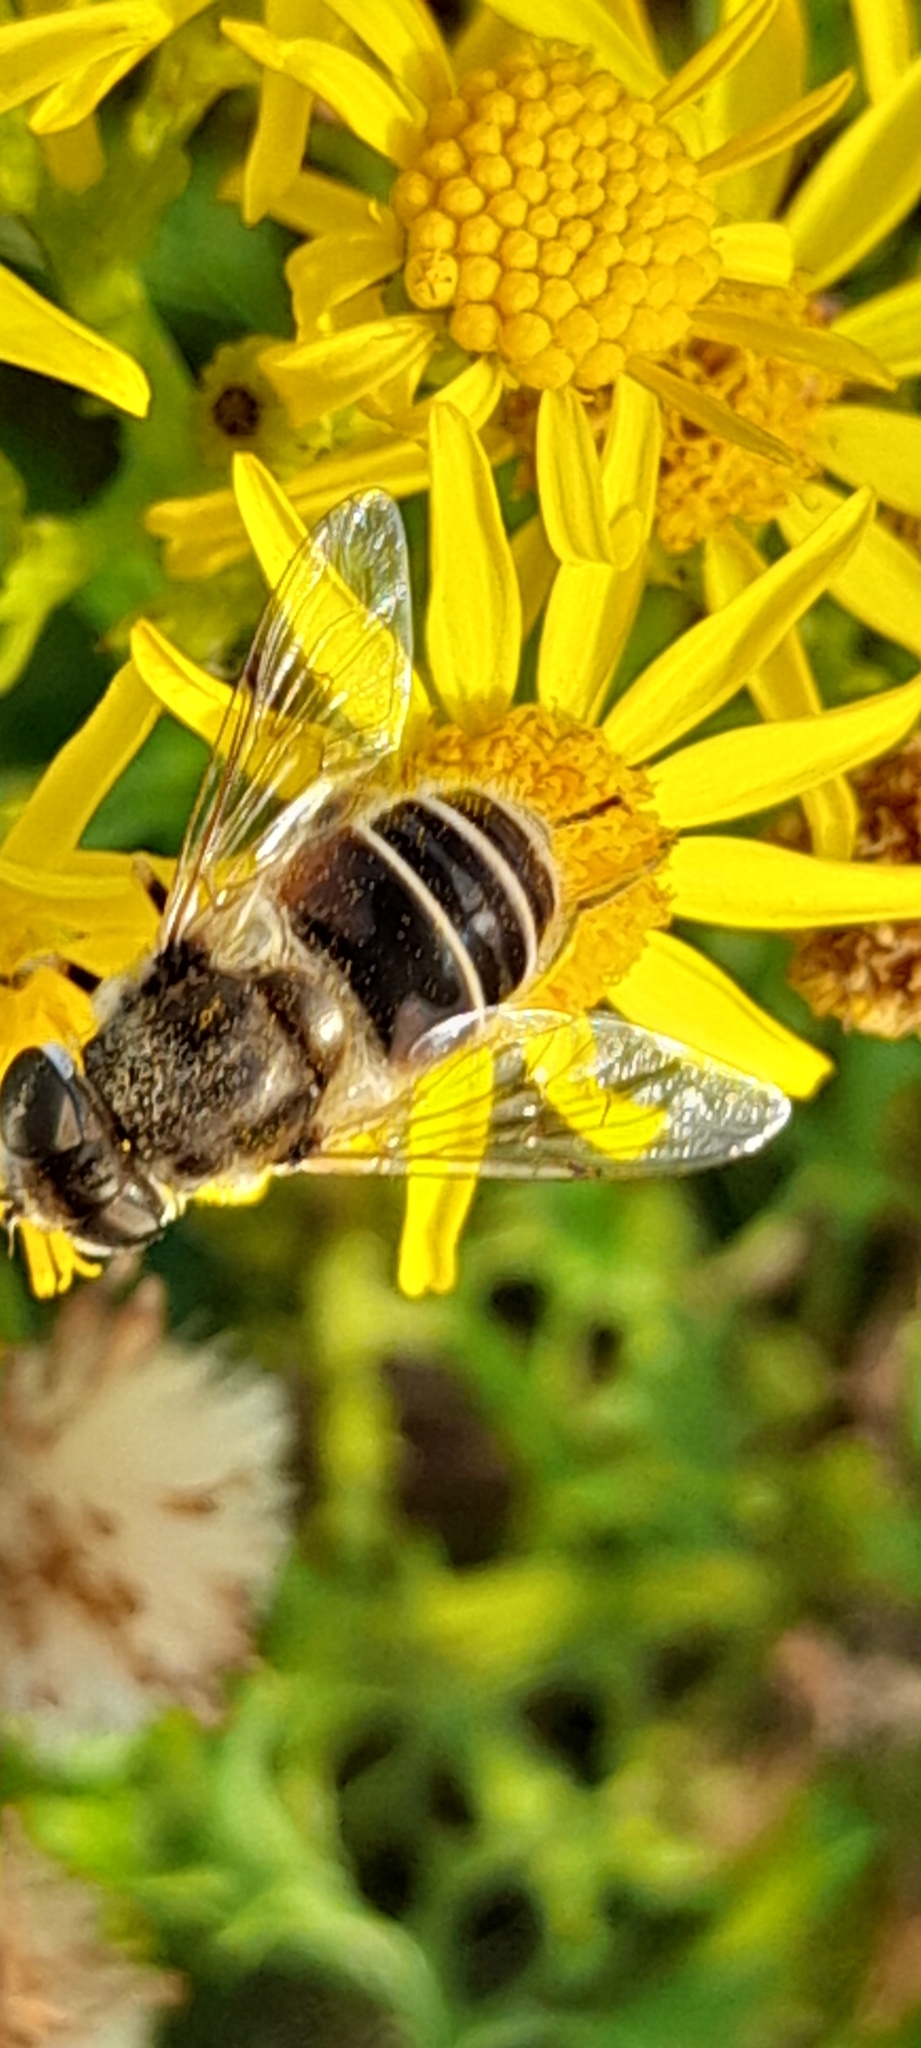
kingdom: Animalia
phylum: Arthropoda
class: Insecta
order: Diptera
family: Syrphidae
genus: Eristalis
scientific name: Eristalis arbustorum
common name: Hover fly
